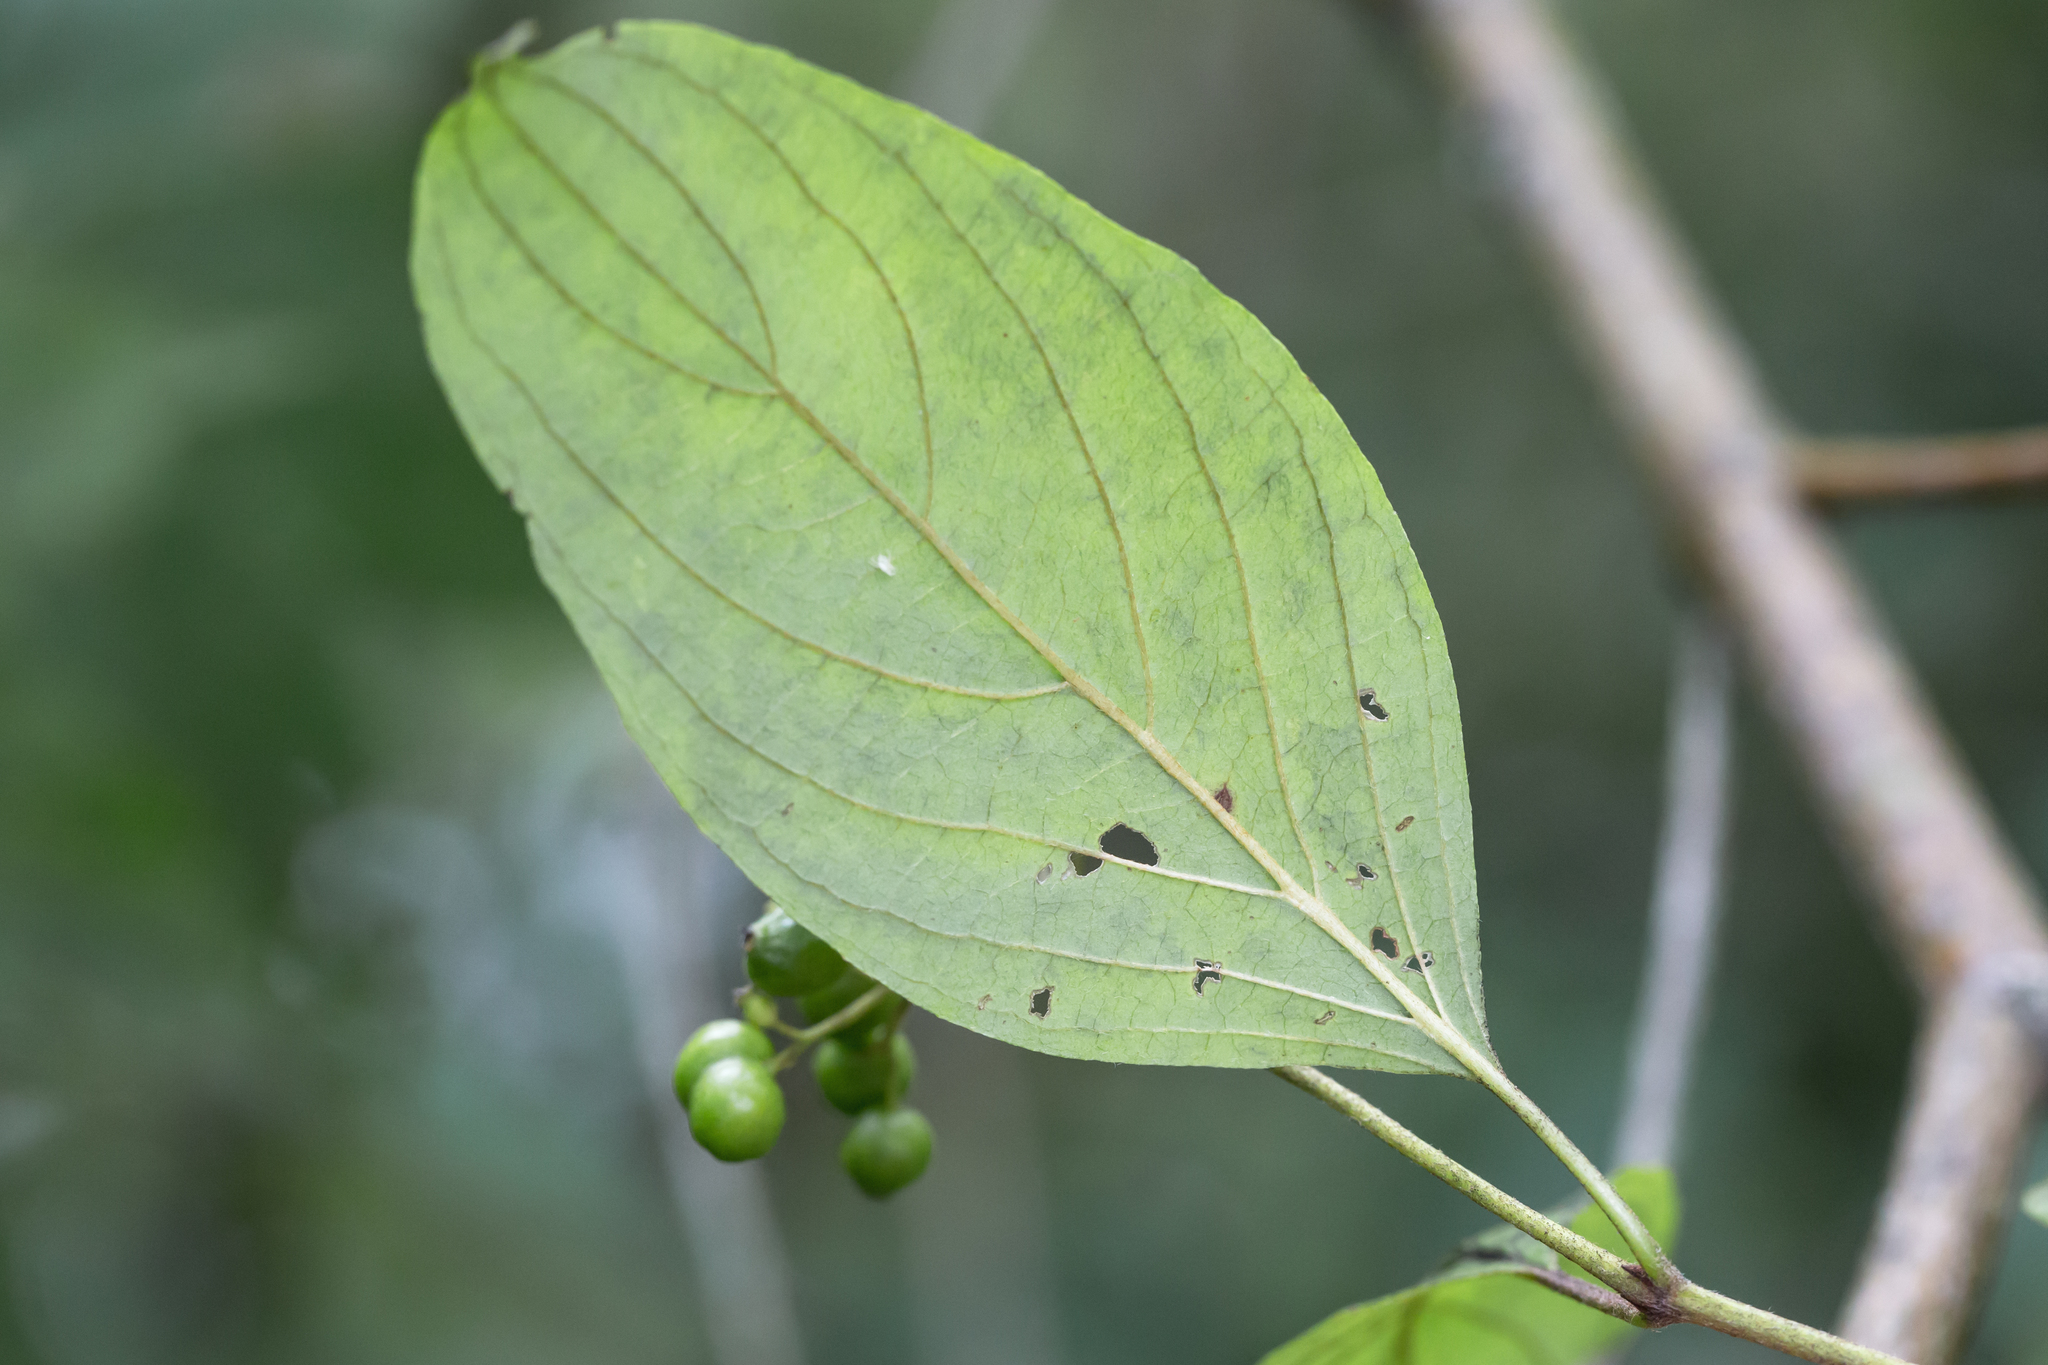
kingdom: Plantae
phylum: Tracheophyta
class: Magnoliopsida
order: Cornales
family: Cornaceae
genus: Cornus
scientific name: Cornus amomum
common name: Silky dogwood
